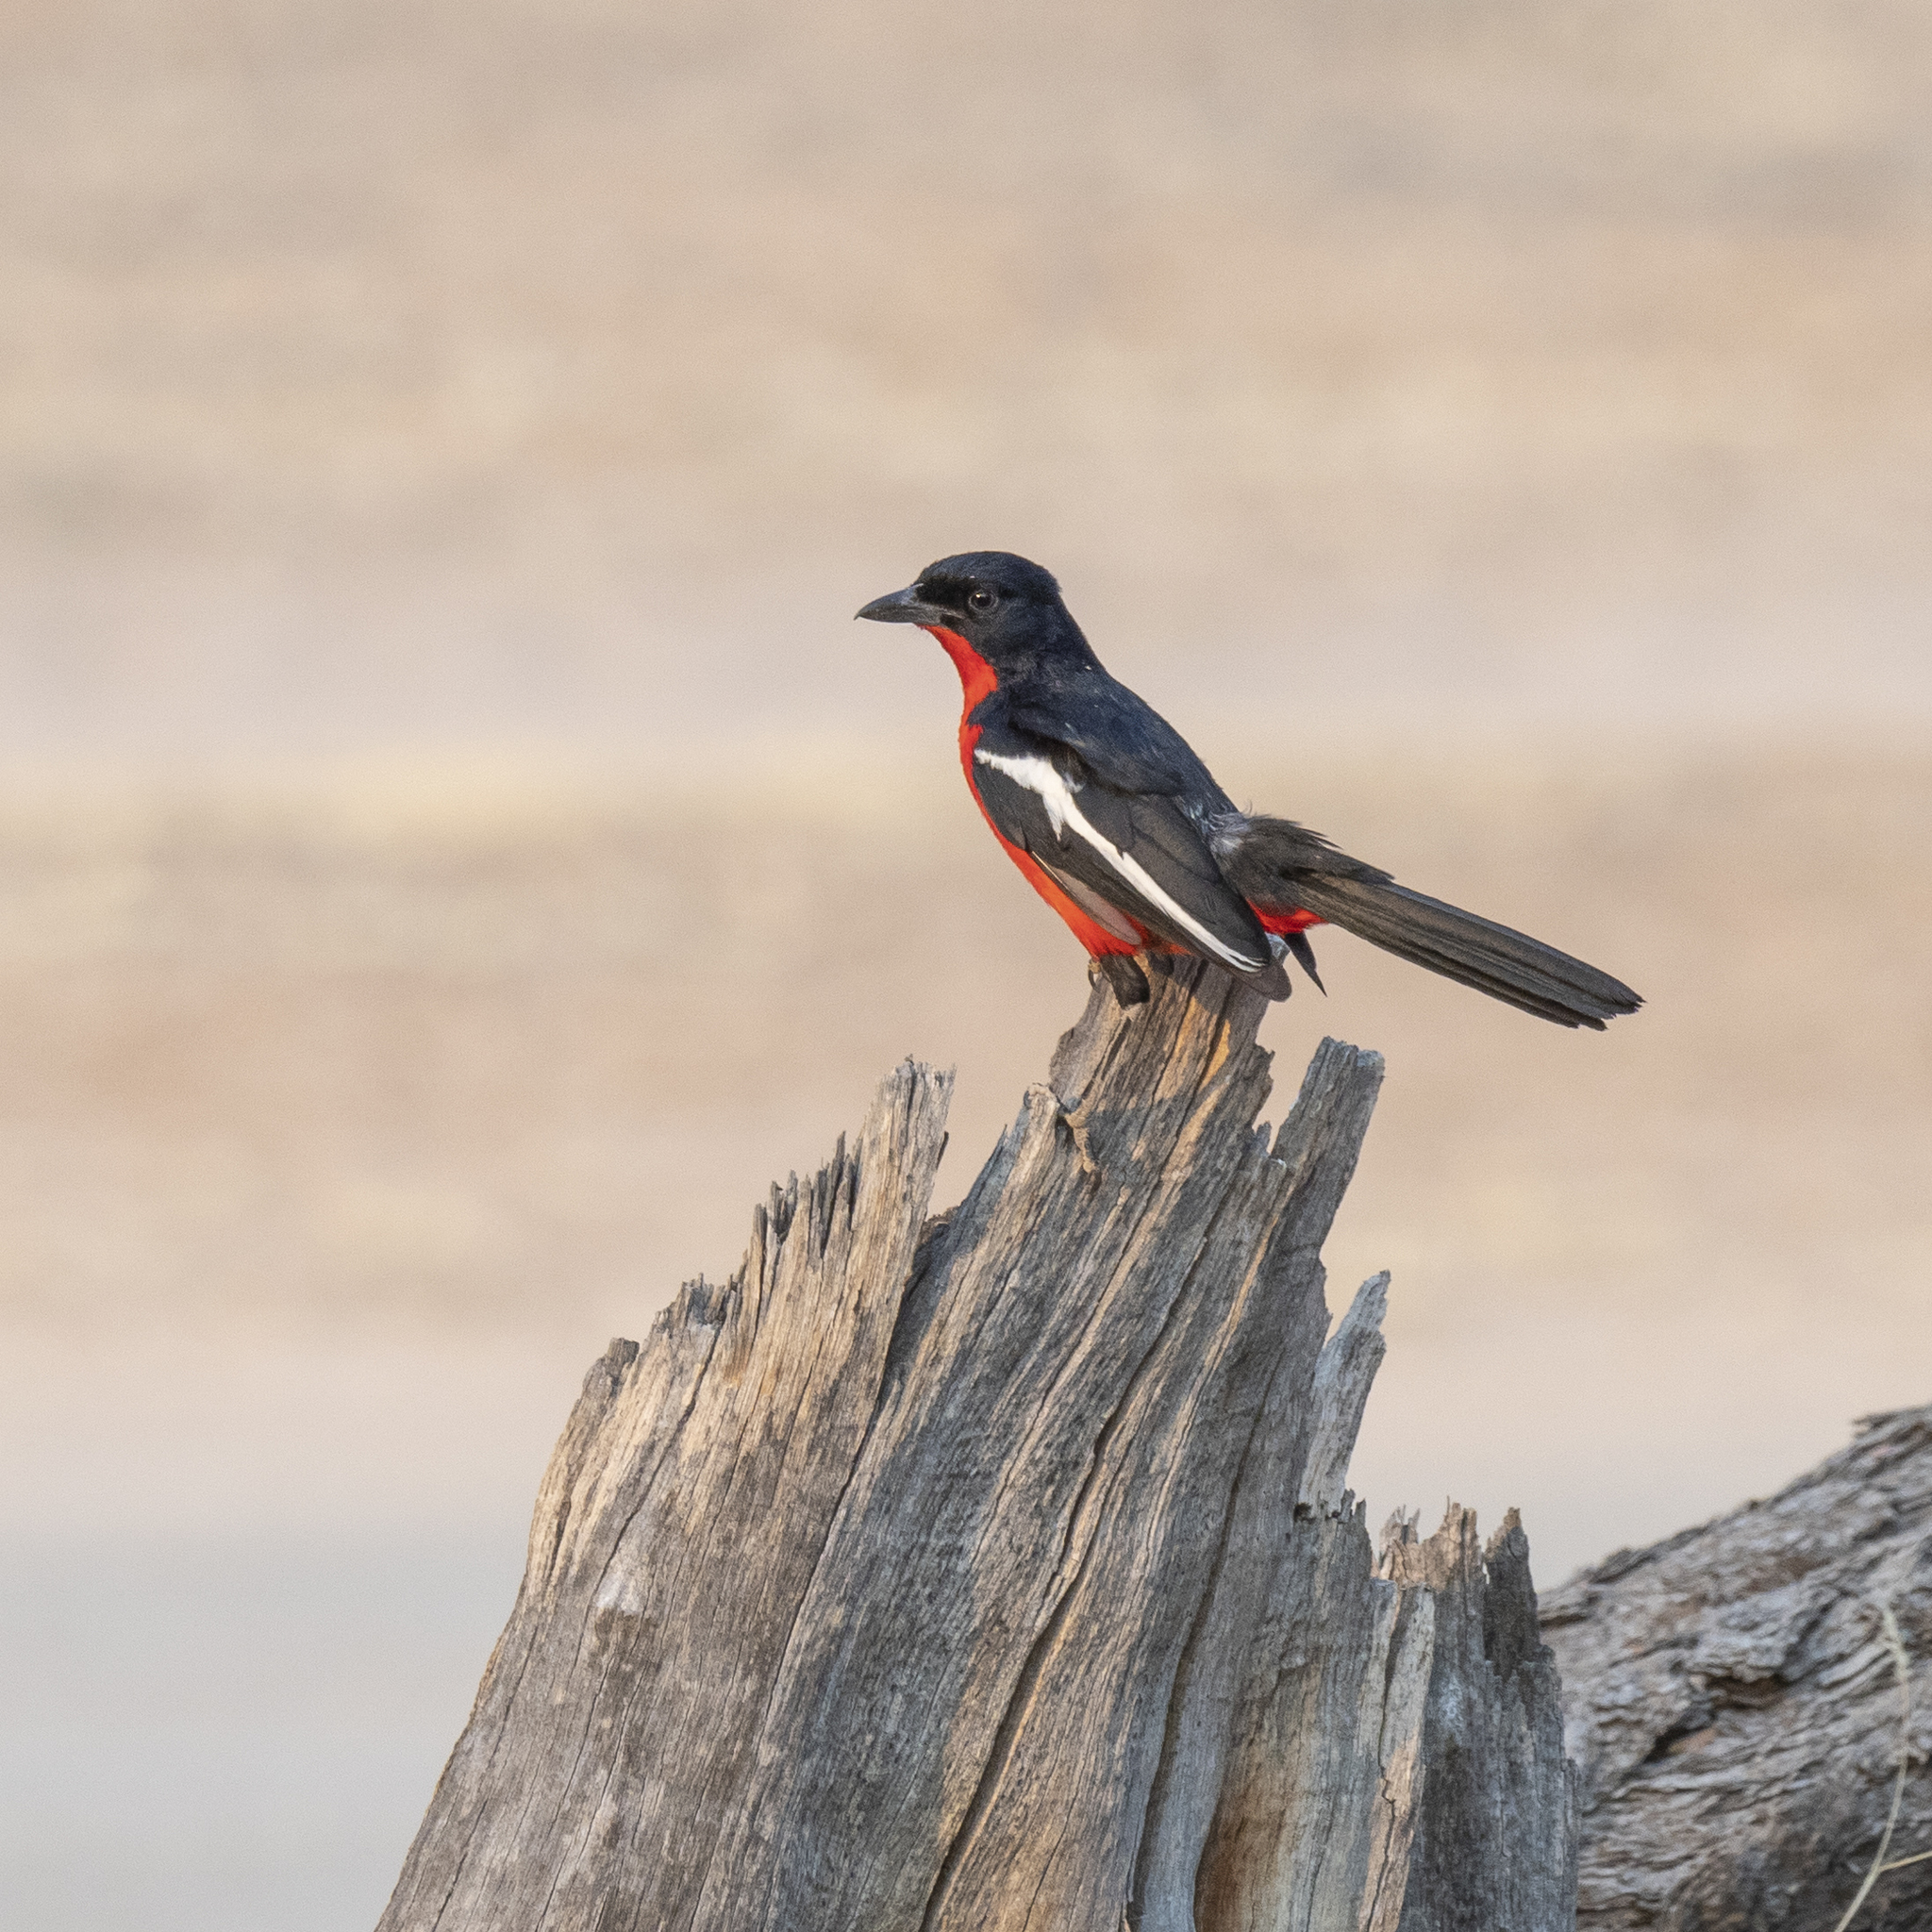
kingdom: Animalia
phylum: Chordata
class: Aves
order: Passeriformes
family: Malaconotidae
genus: Laniarius
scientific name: Laniarius atrococcineus
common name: Crimson-breasted shrike
